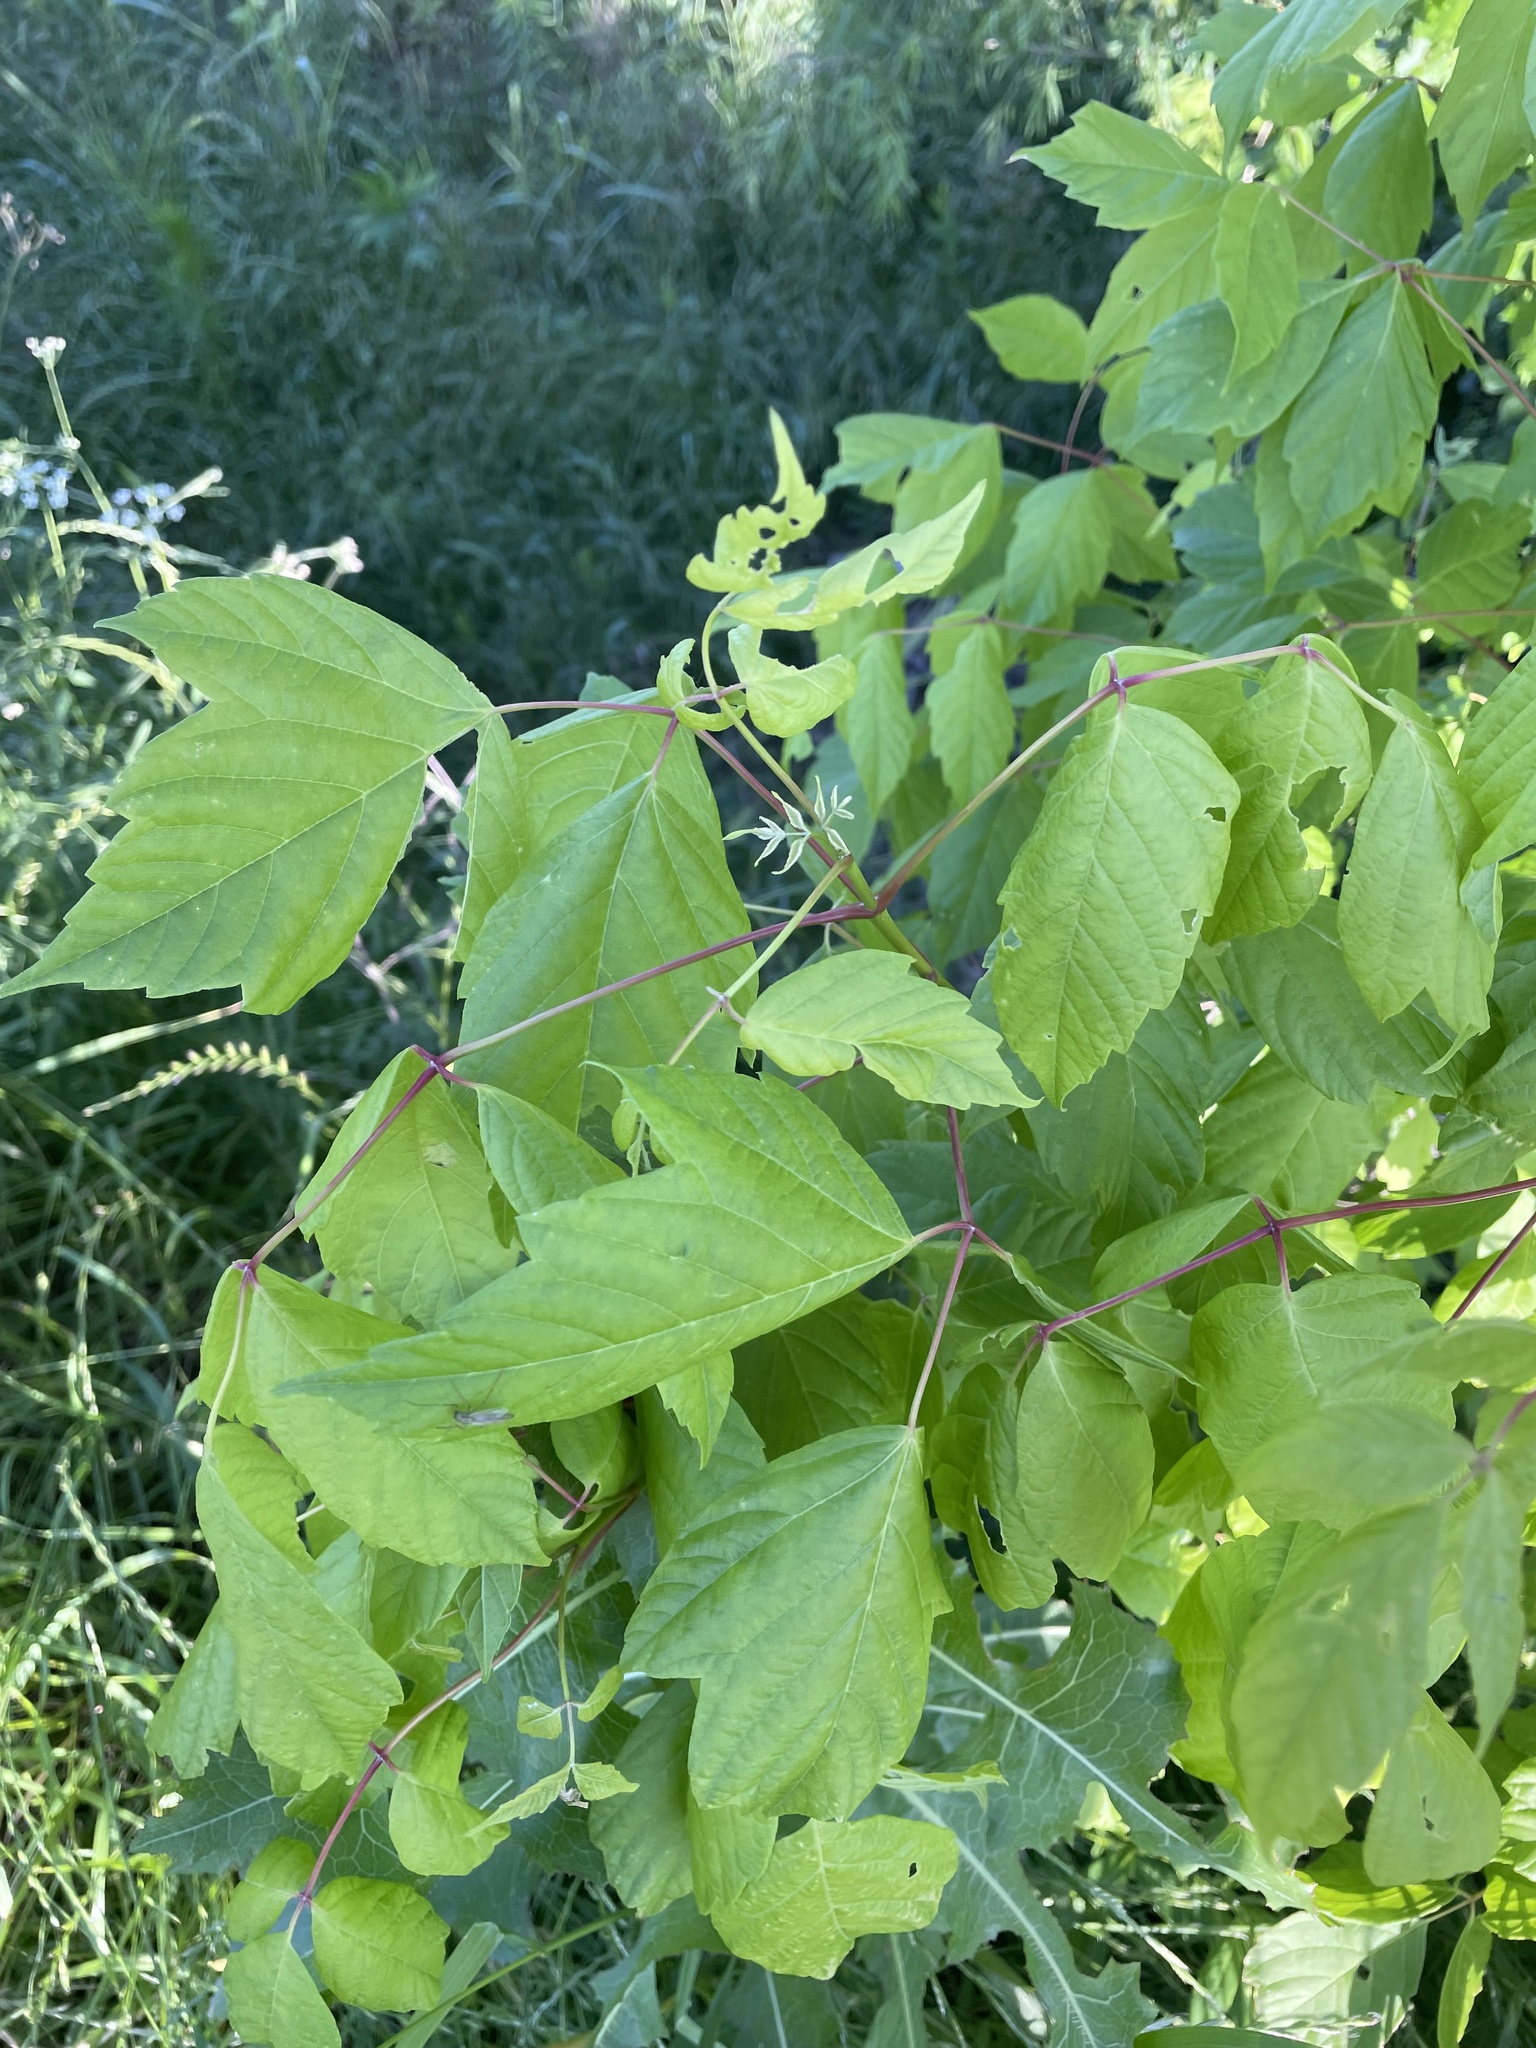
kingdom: Plantae
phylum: Tracheophyta
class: Magnoliopsida
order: Sapindales
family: Sapindaceae
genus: Acer
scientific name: Acer negundo
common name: Ashleaf maple
